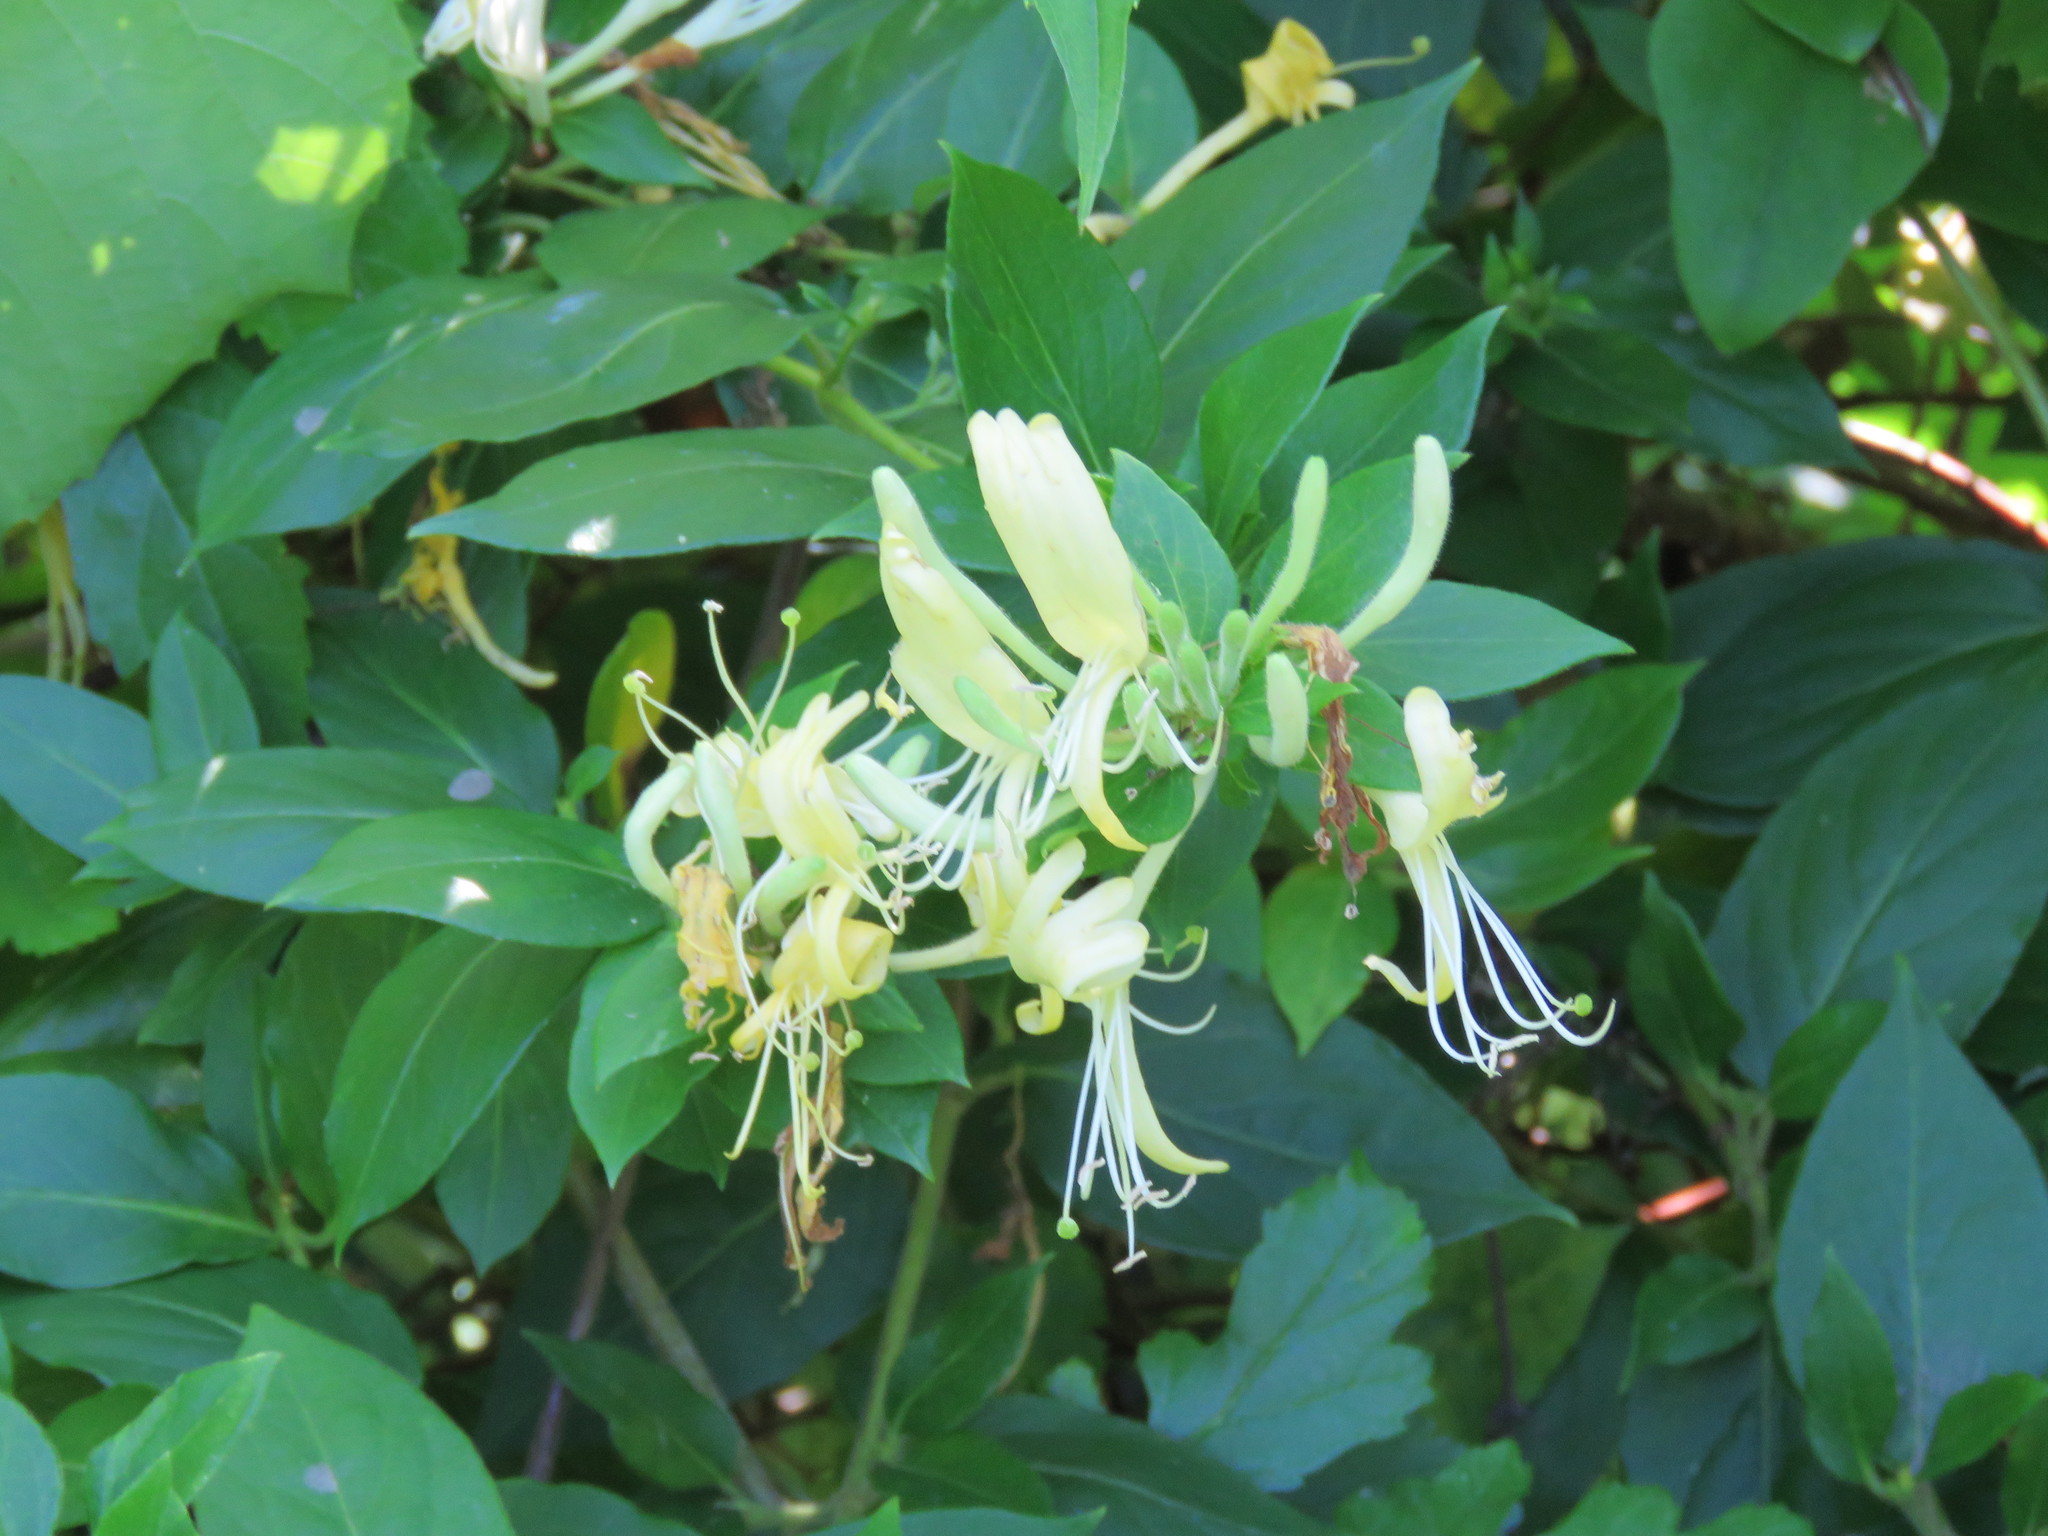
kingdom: Plantae
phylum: Tracheophyta
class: Magnoliopsida
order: Dipsacales
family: Caprifoliaceae
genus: Lonicera
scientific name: Lonicera japonica
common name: Japanese honeysuckle
